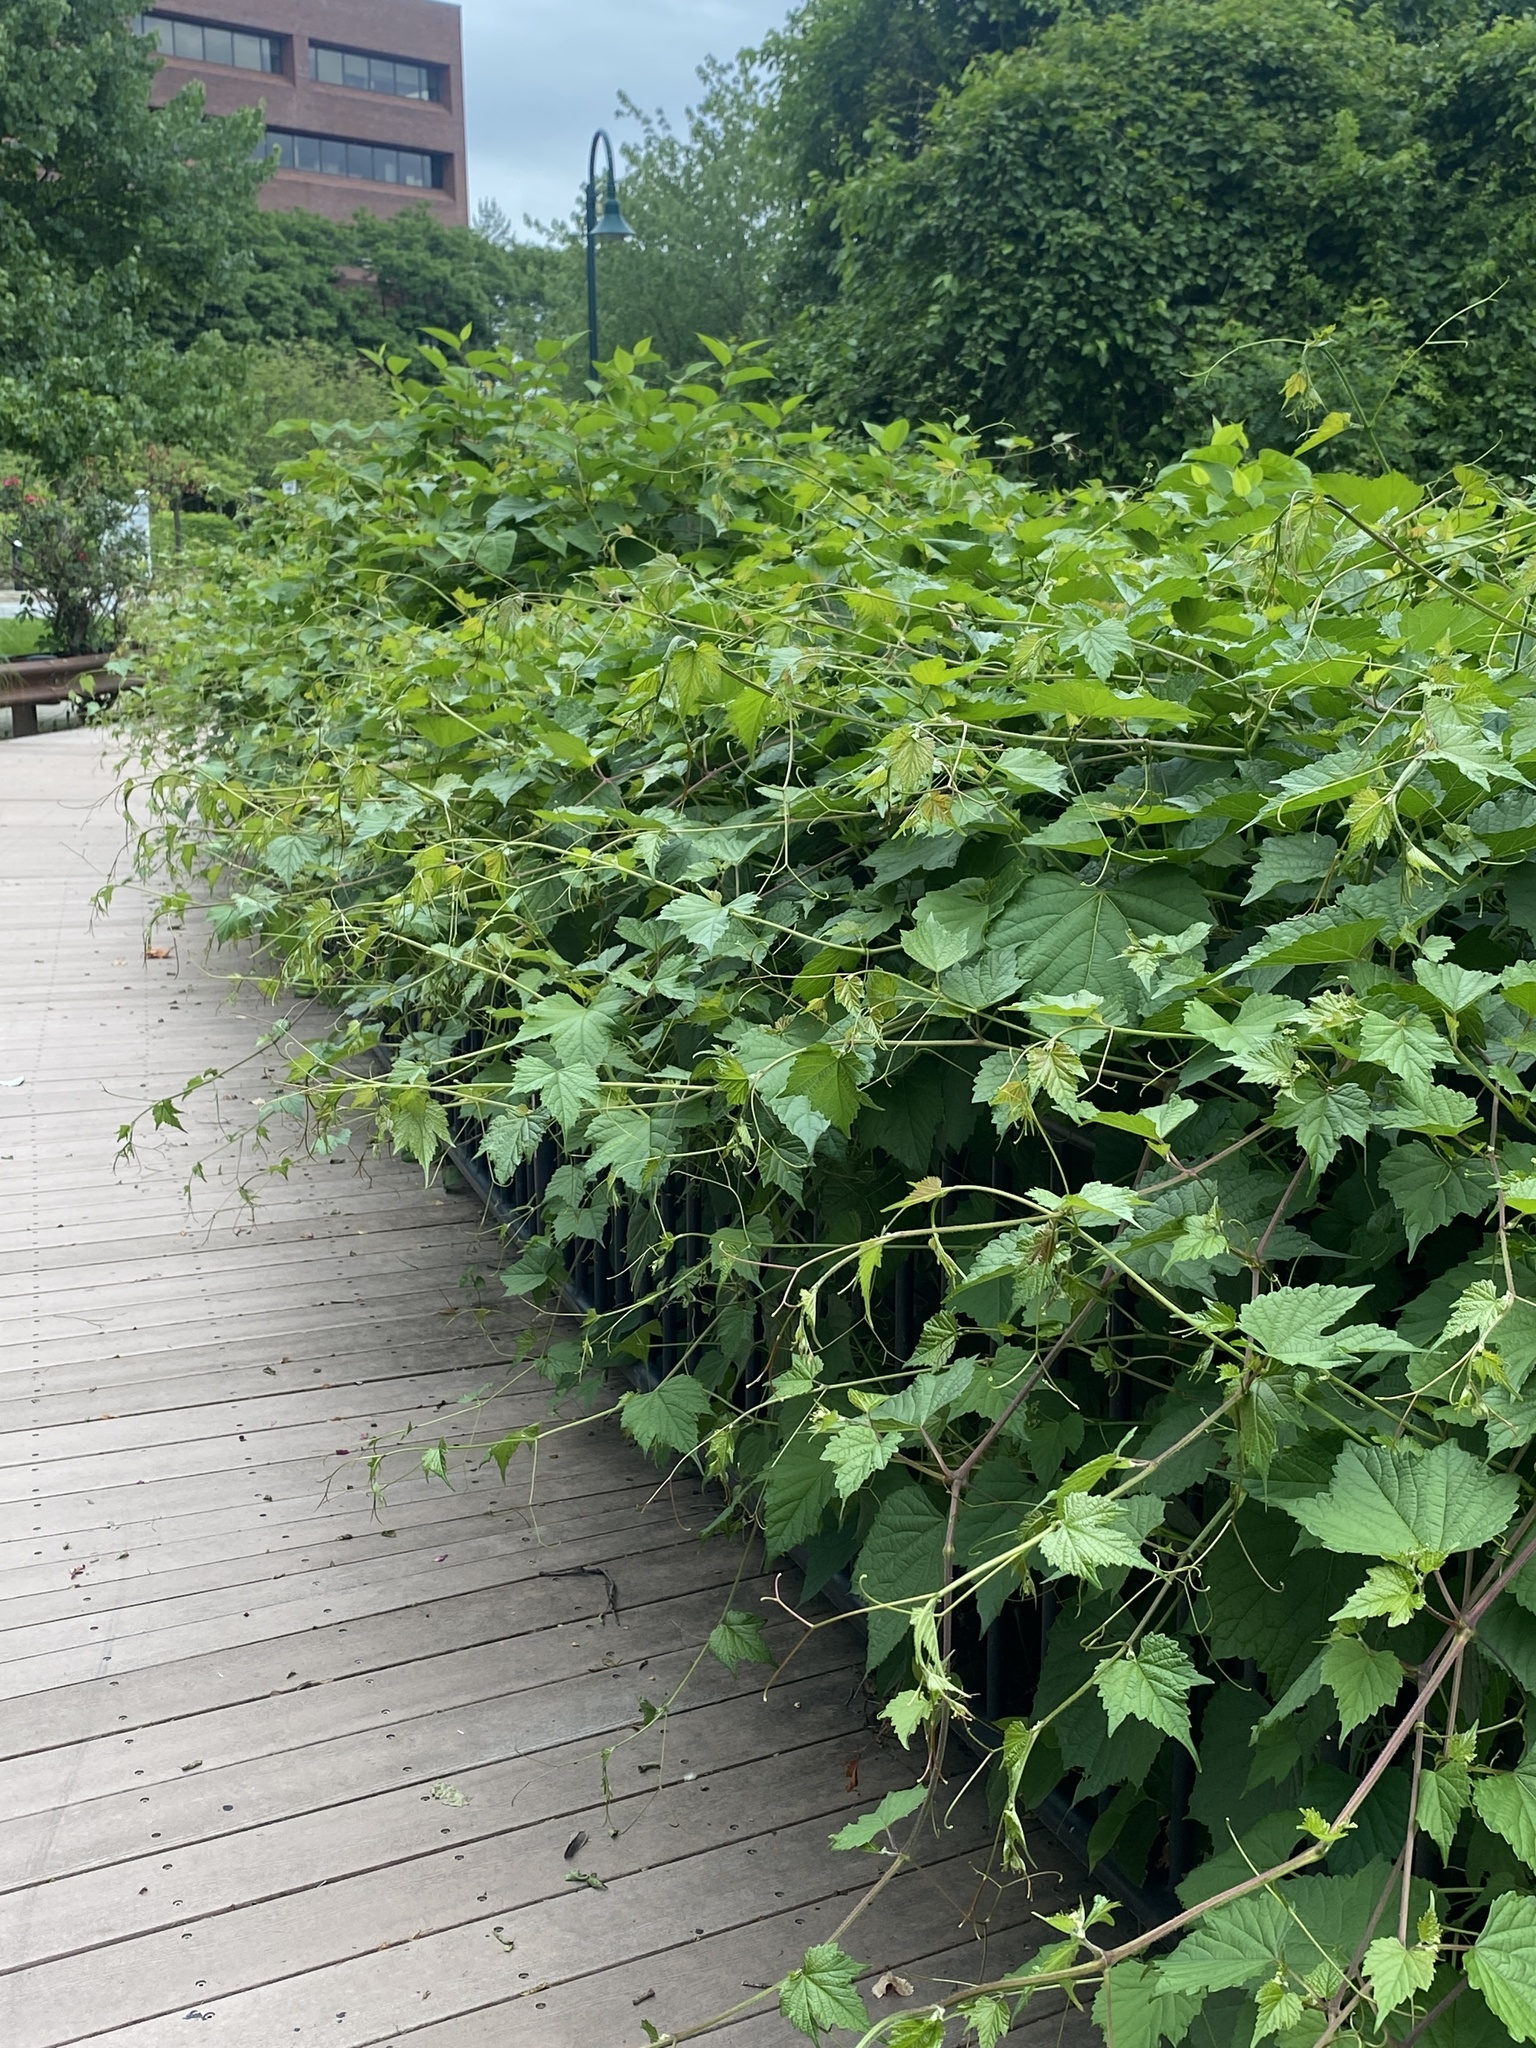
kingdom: Plantae
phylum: Tracheophyta
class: Magnoliopsida
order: Vitales
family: Vitaceae
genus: Ampelopsis
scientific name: Ampelopsis glandulosa
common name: Amur peppervine
